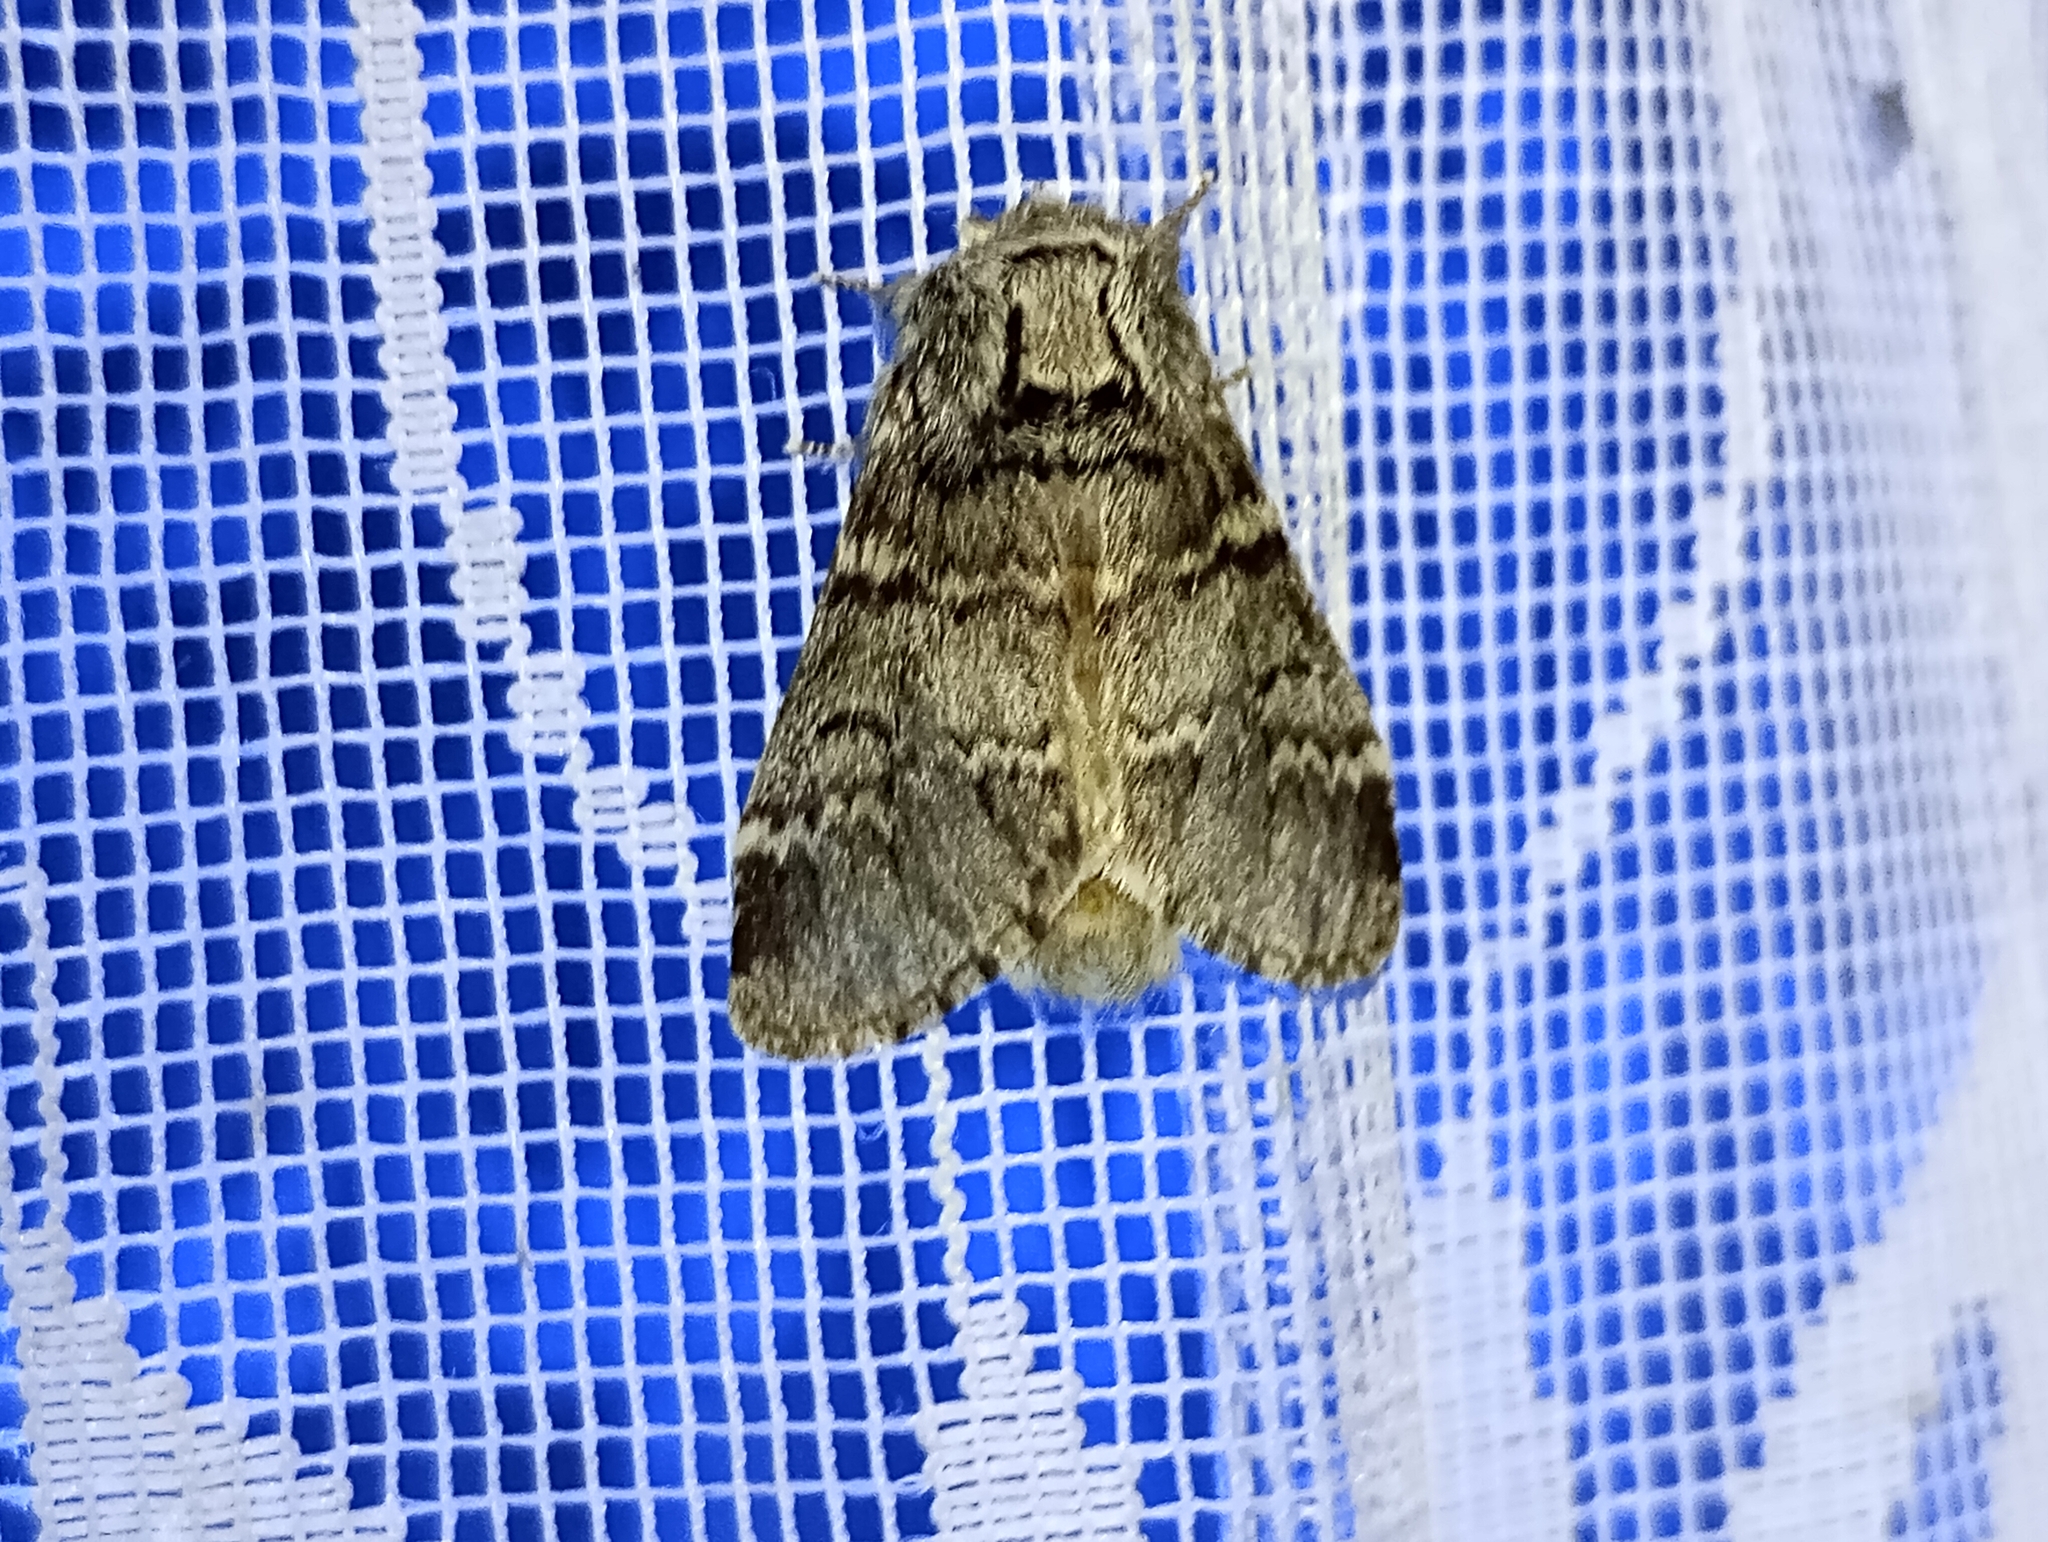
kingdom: Animalia
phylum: Arthropoda
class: Insecta
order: Lepidoptera
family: Notodontidae
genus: Drymonia
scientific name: Drymonia ruficornis
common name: Lunar marbled brown
